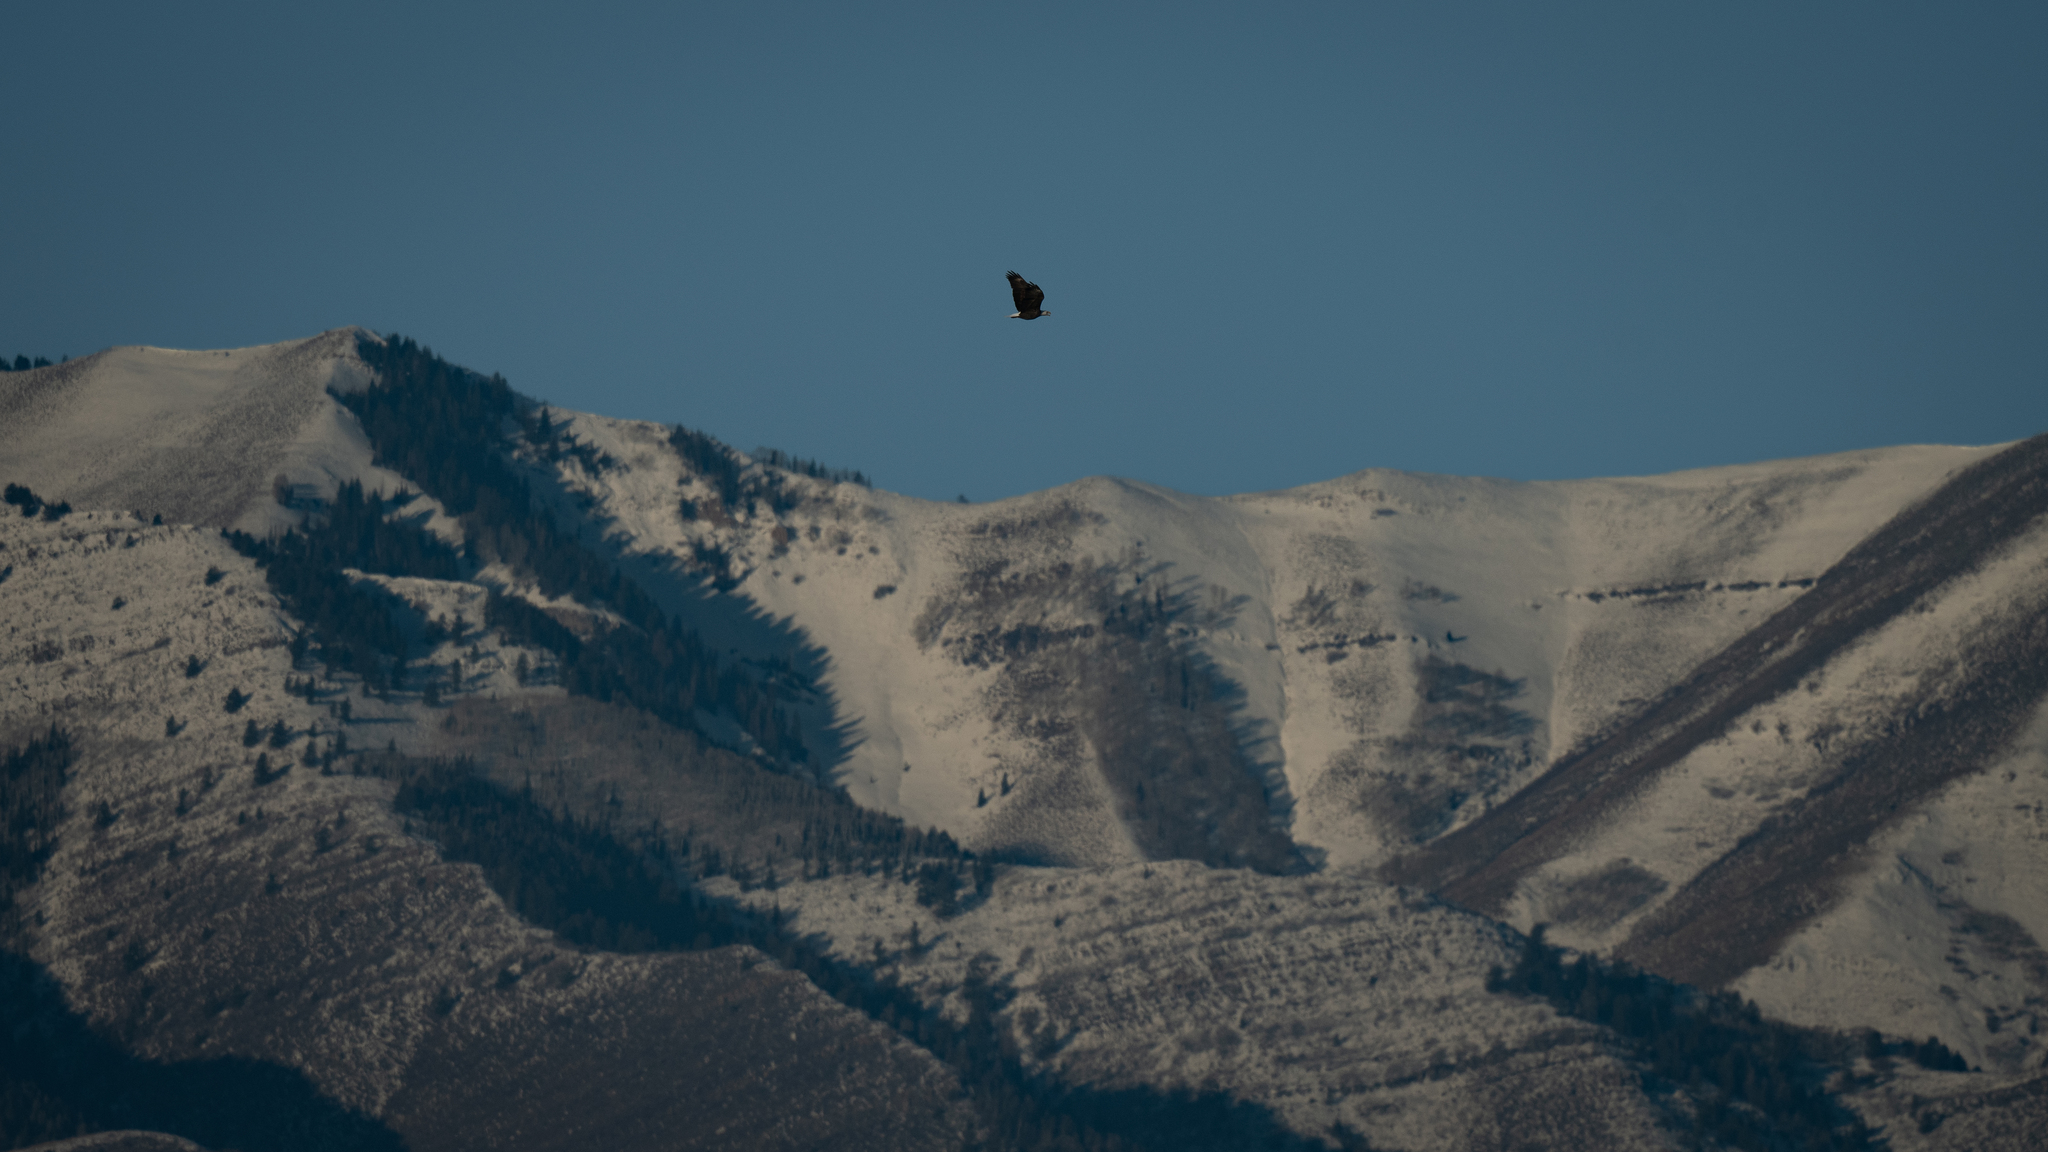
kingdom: Animalia
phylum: Chordata
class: Aves
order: Accipitriformes
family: Accipitridae
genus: Haliaeetus
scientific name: Haliaeetus leucocephalus
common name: Bald eagle
